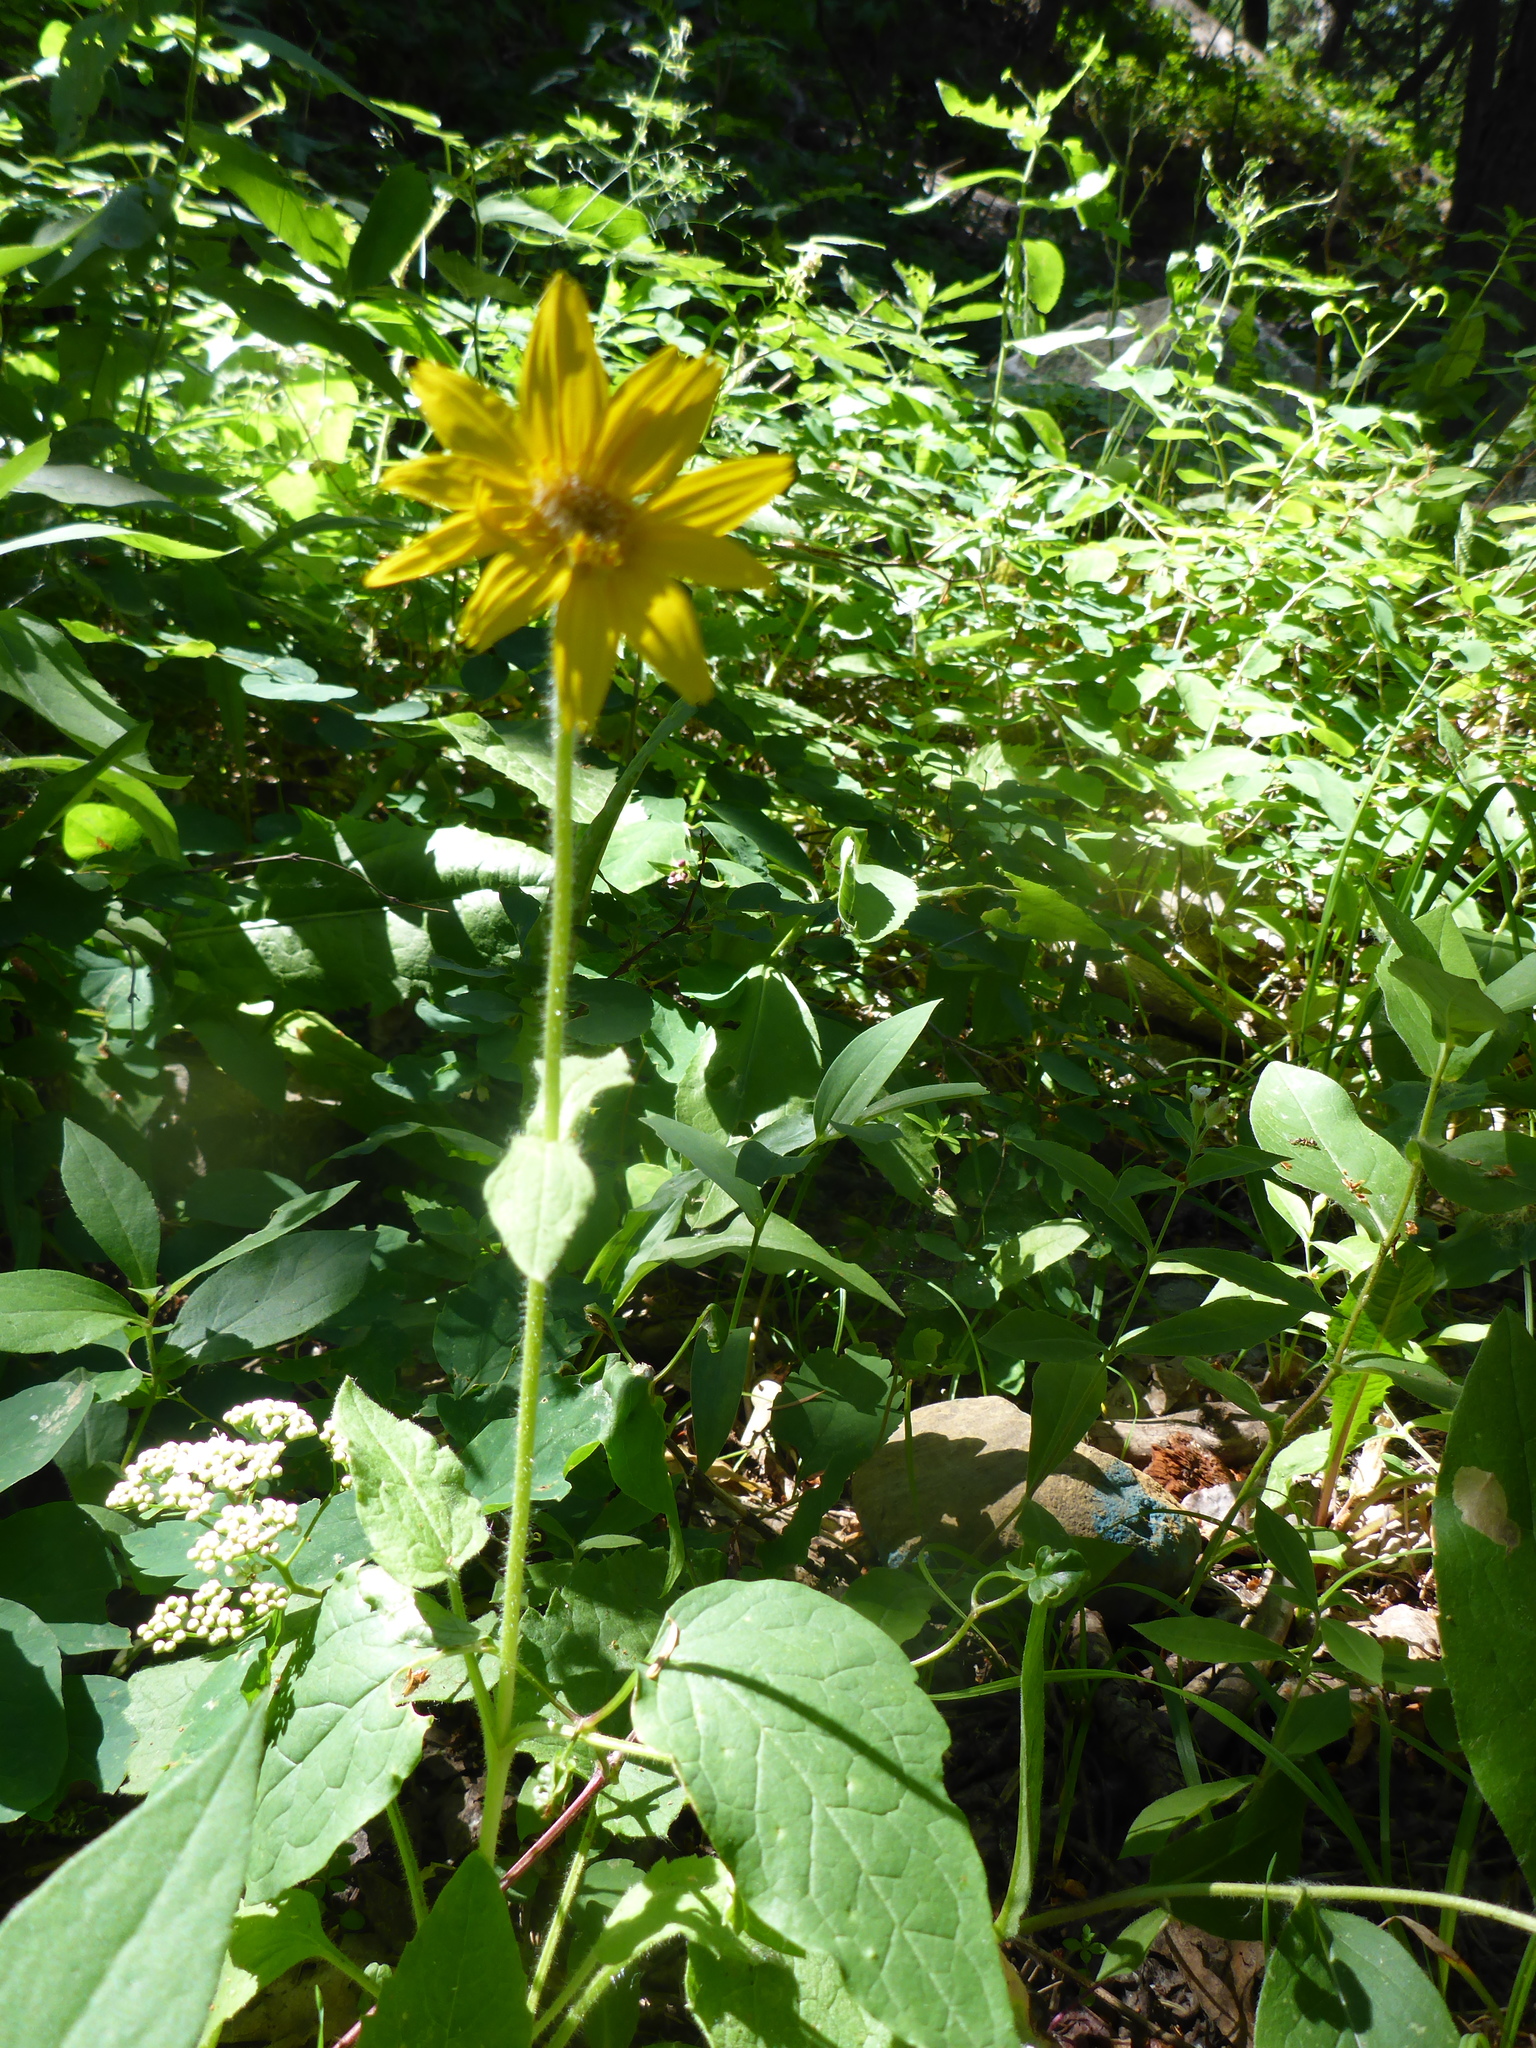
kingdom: Plantae
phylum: Tracheophyta
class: Magnoliopsida
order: Asterales
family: Asteraceae
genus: Arnica
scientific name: Arnica cordifolia
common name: Heart-leaf arnica
